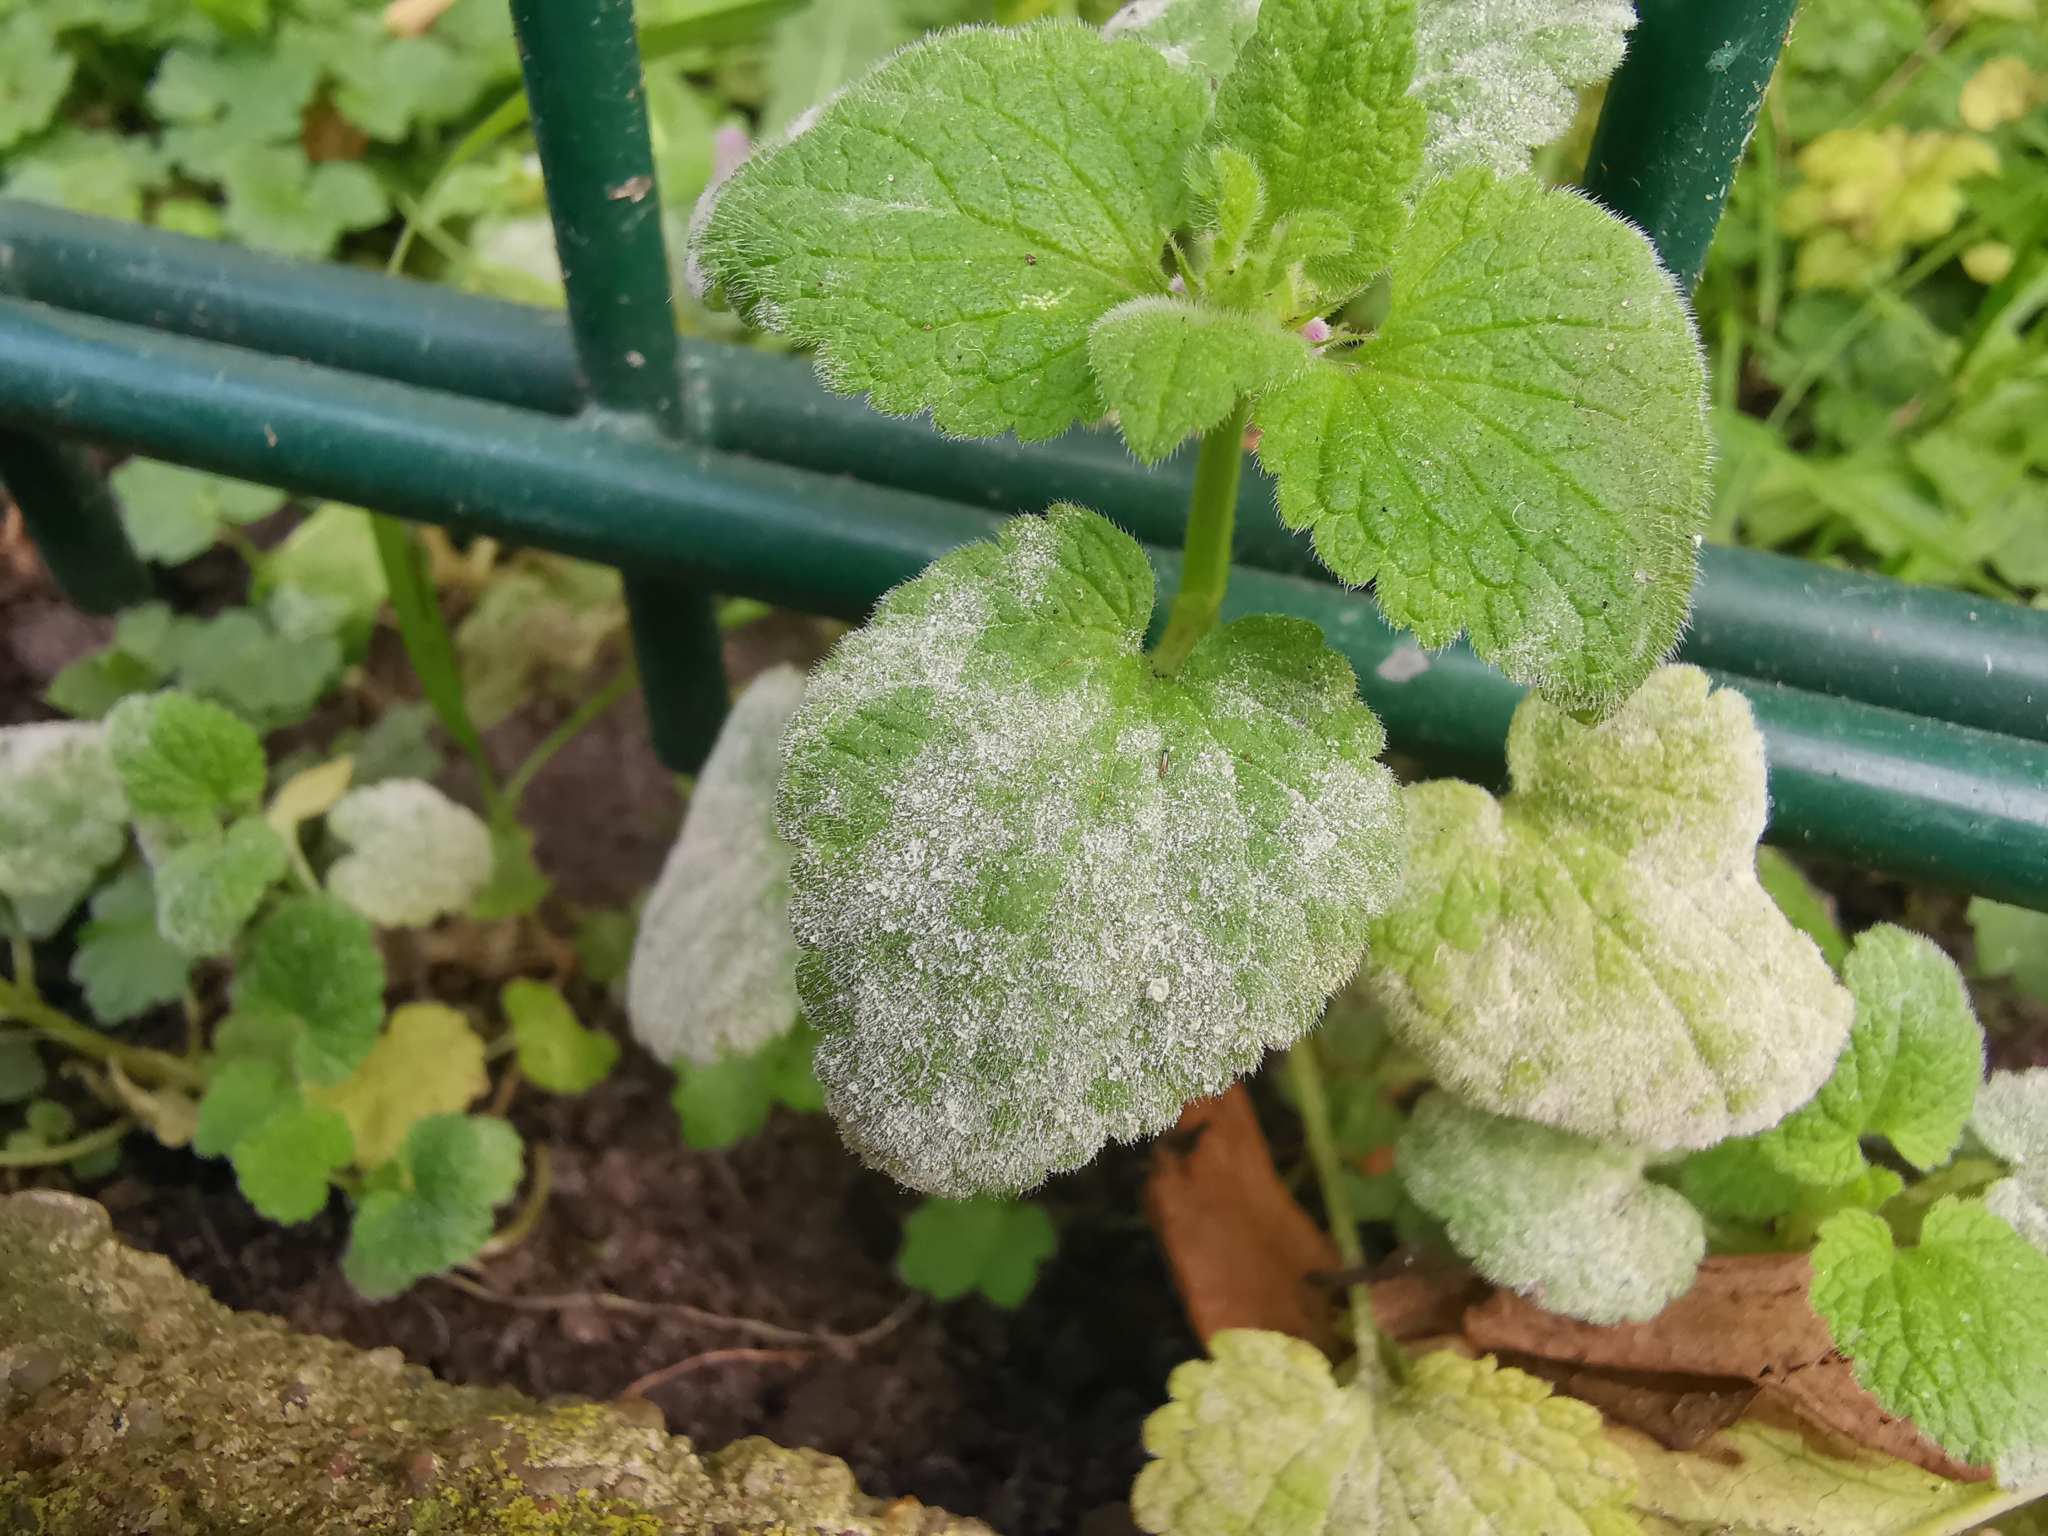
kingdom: Fungi
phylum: Ascomycota
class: Leotiomycetes
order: Helotiales
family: Erysiphaceae
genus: Neoerysiphe
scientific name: Neoerysiphe galeopsidis
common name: Mint mildew
